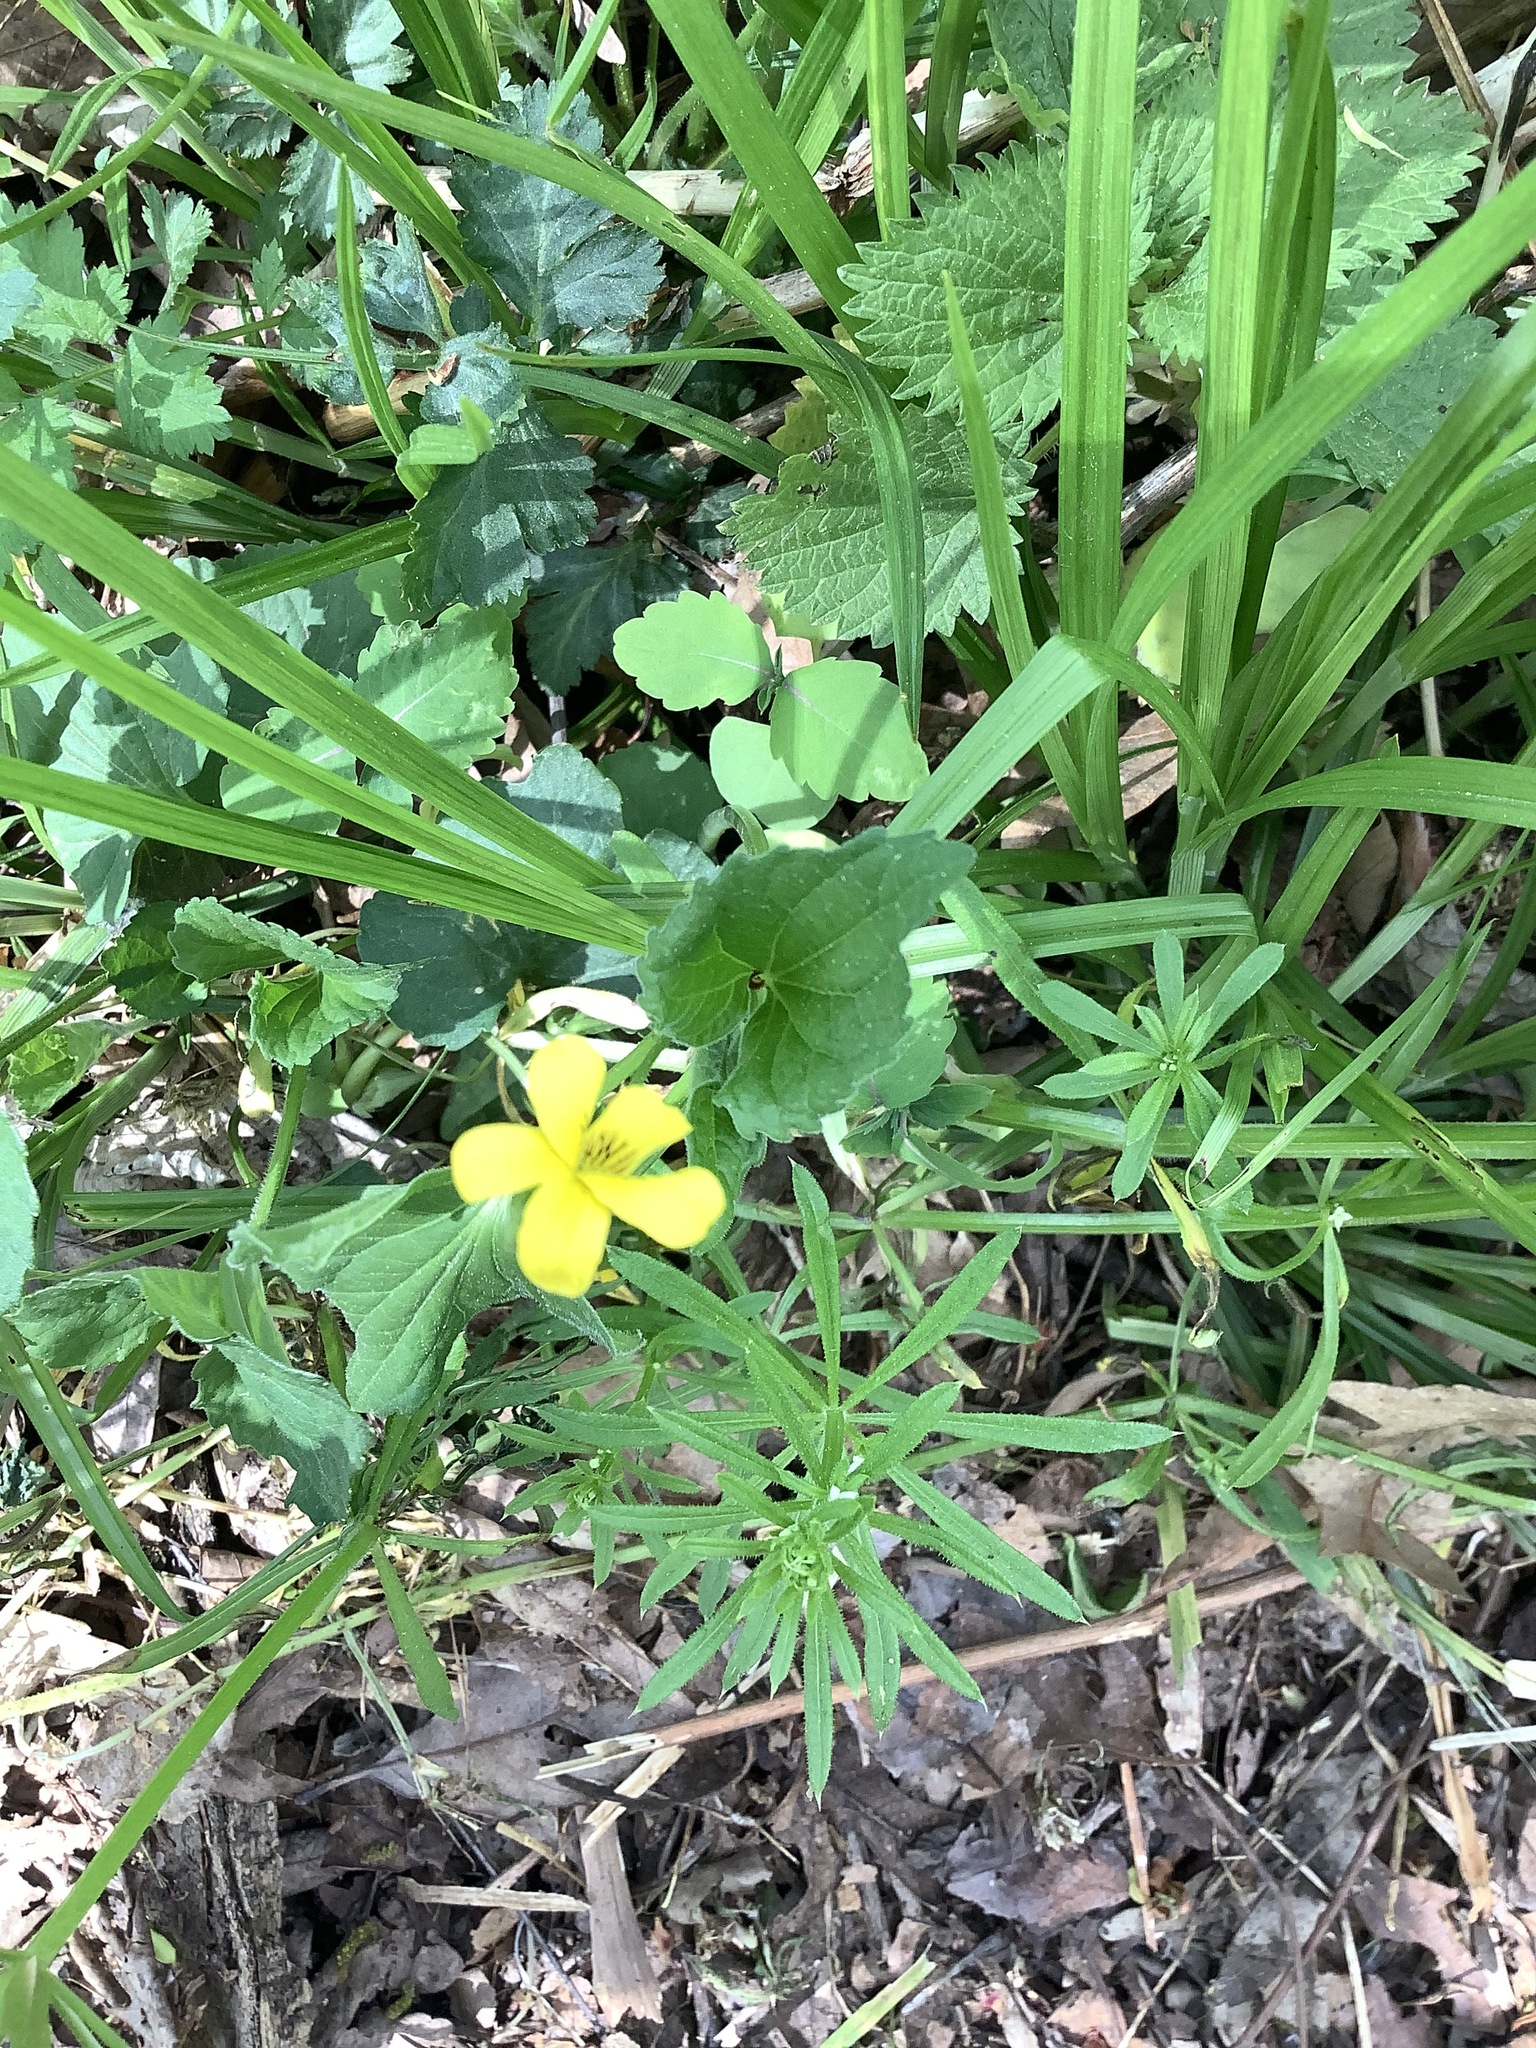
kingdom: Plantae
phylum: Tracheophyta
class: Magnoliopsida
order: Malpighiales
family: Violaceae
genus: Viola
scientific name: Viola eriocarpa
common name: Smooth yellow violet
